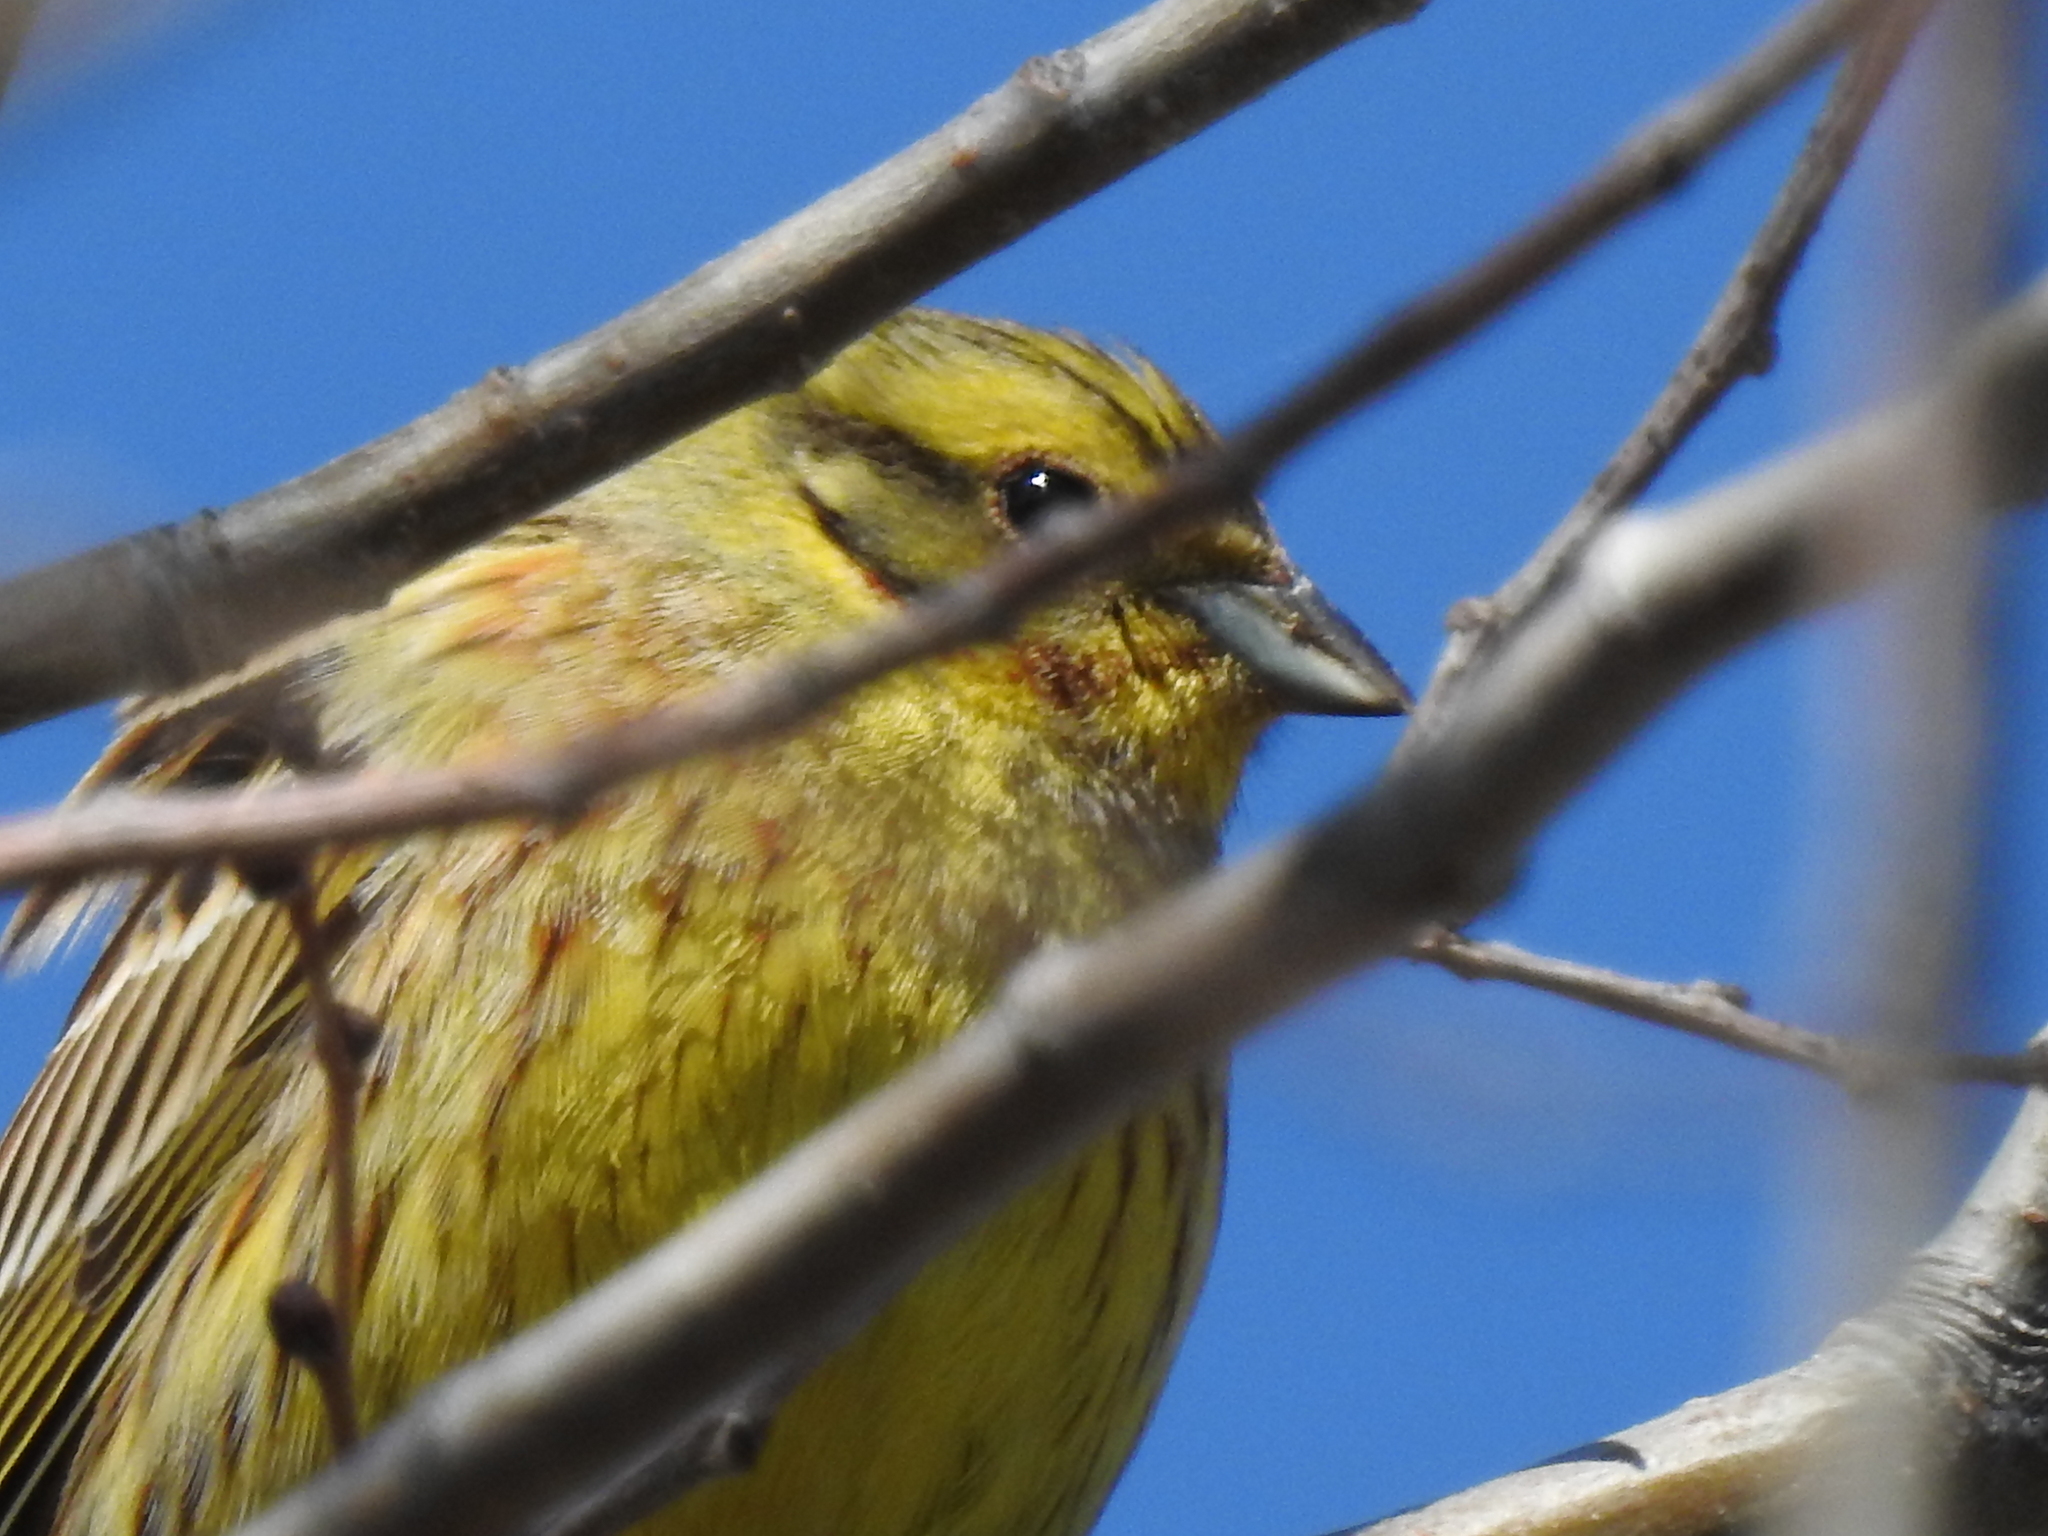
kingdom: Animalia
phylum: Chordata
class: Aves
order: Passeriformes
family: Emberizidae
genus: Emberiza
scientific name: Emberiza citrinella
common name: Yellowhammer
